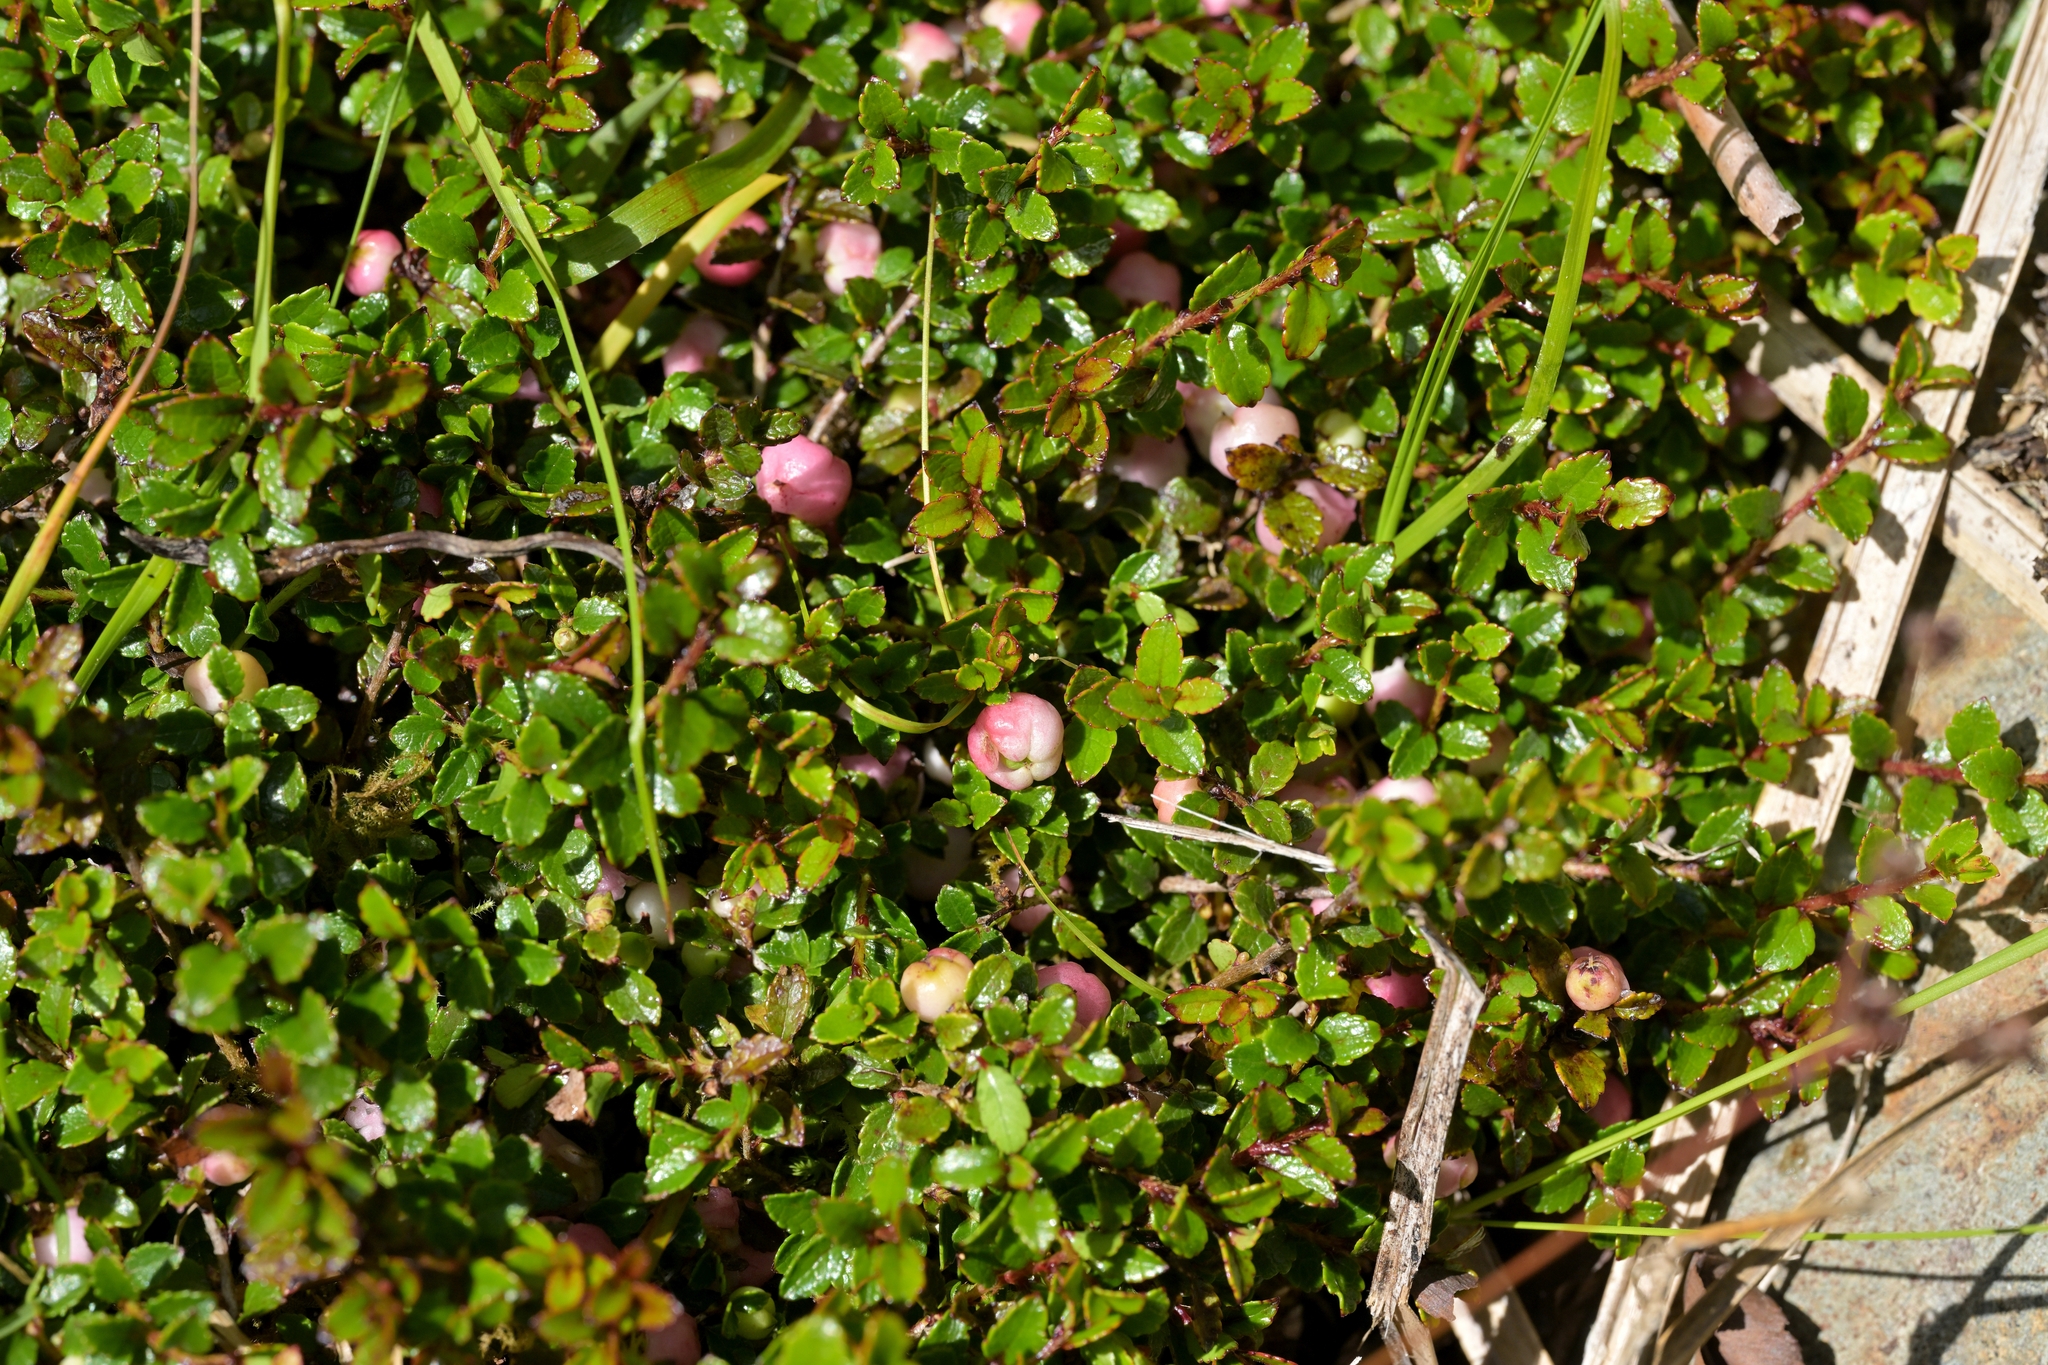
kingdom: Plantae
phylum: Tracheophyta
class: Magnoliopsida
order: Ericales
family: Ericaceae
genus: Gaultheria
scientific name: Gaultheria depressa
